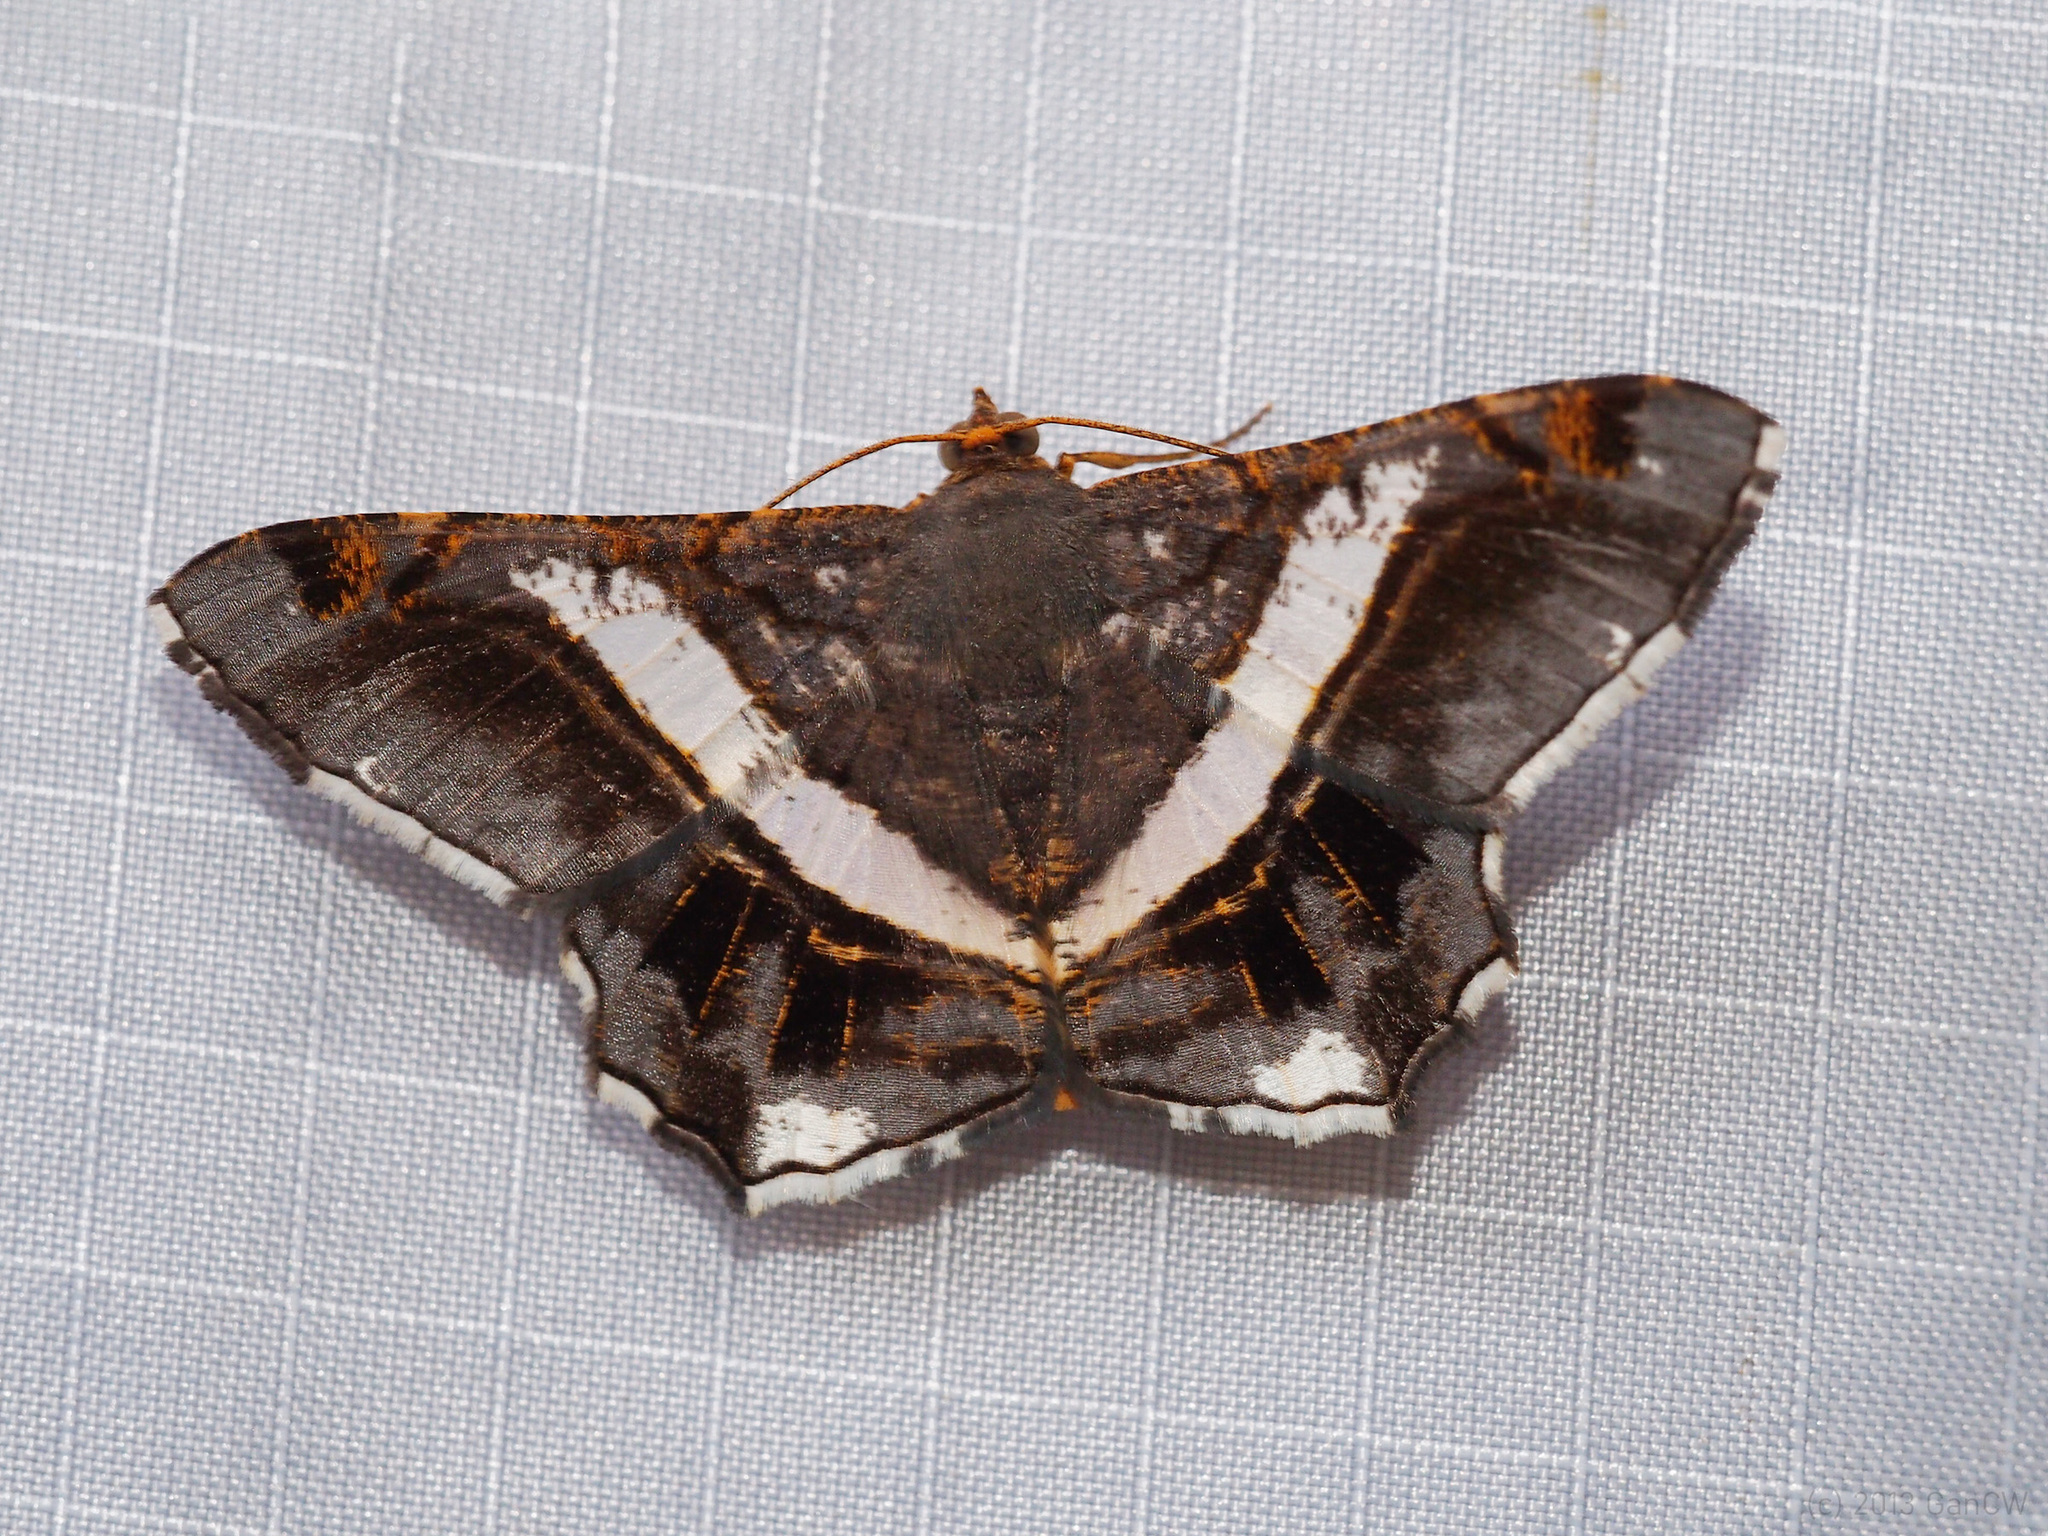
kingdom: Animalia
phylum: Arthropoda
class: Insecta
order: Lepidoptera
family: Geometridae
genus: Chiasmia
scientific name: Chiasmia nora
